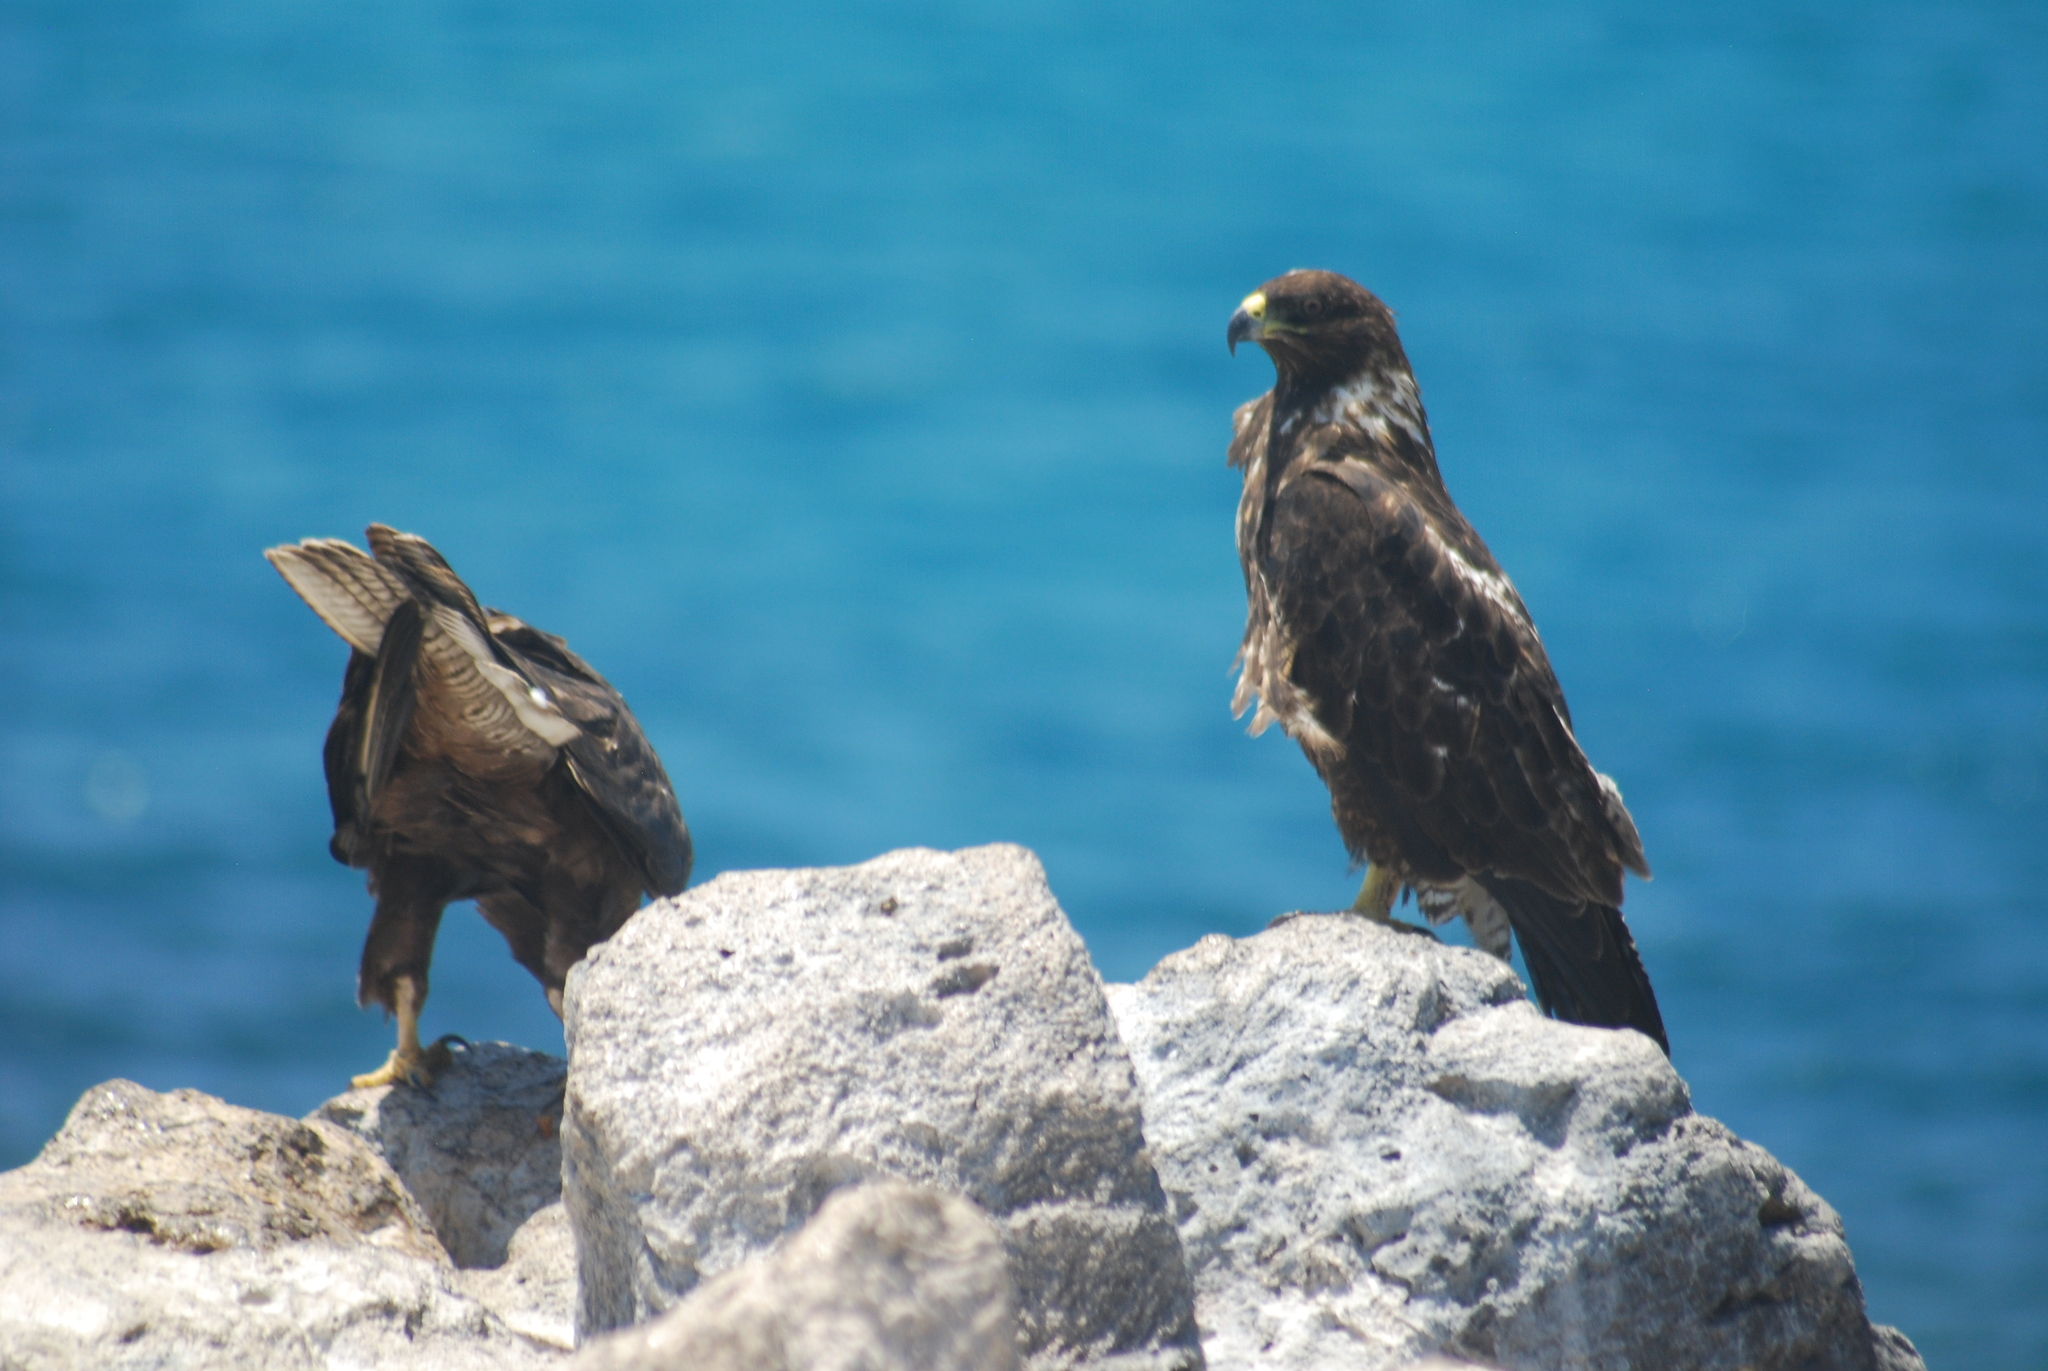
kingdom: Animalia
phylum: Chordata
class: Aves
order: Accipitriformes
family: Accipitridae
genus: Buteo
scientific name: Buteo galapagoensis
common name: Galapagos hawk
